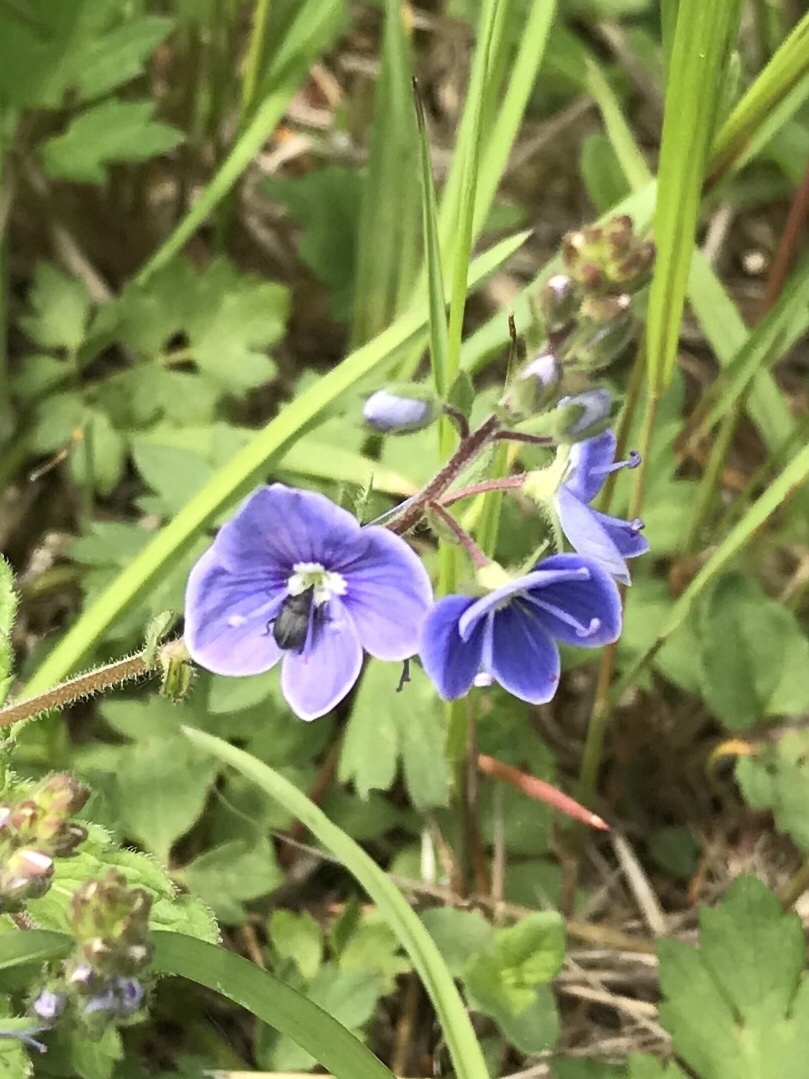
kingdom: Plantae
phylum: Tracheophyta
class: Magnoliopsida
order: Lamiales
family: Plantaginaceae
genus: Veronica
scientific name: Veronica chamaedrys
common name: Germander speedwell
